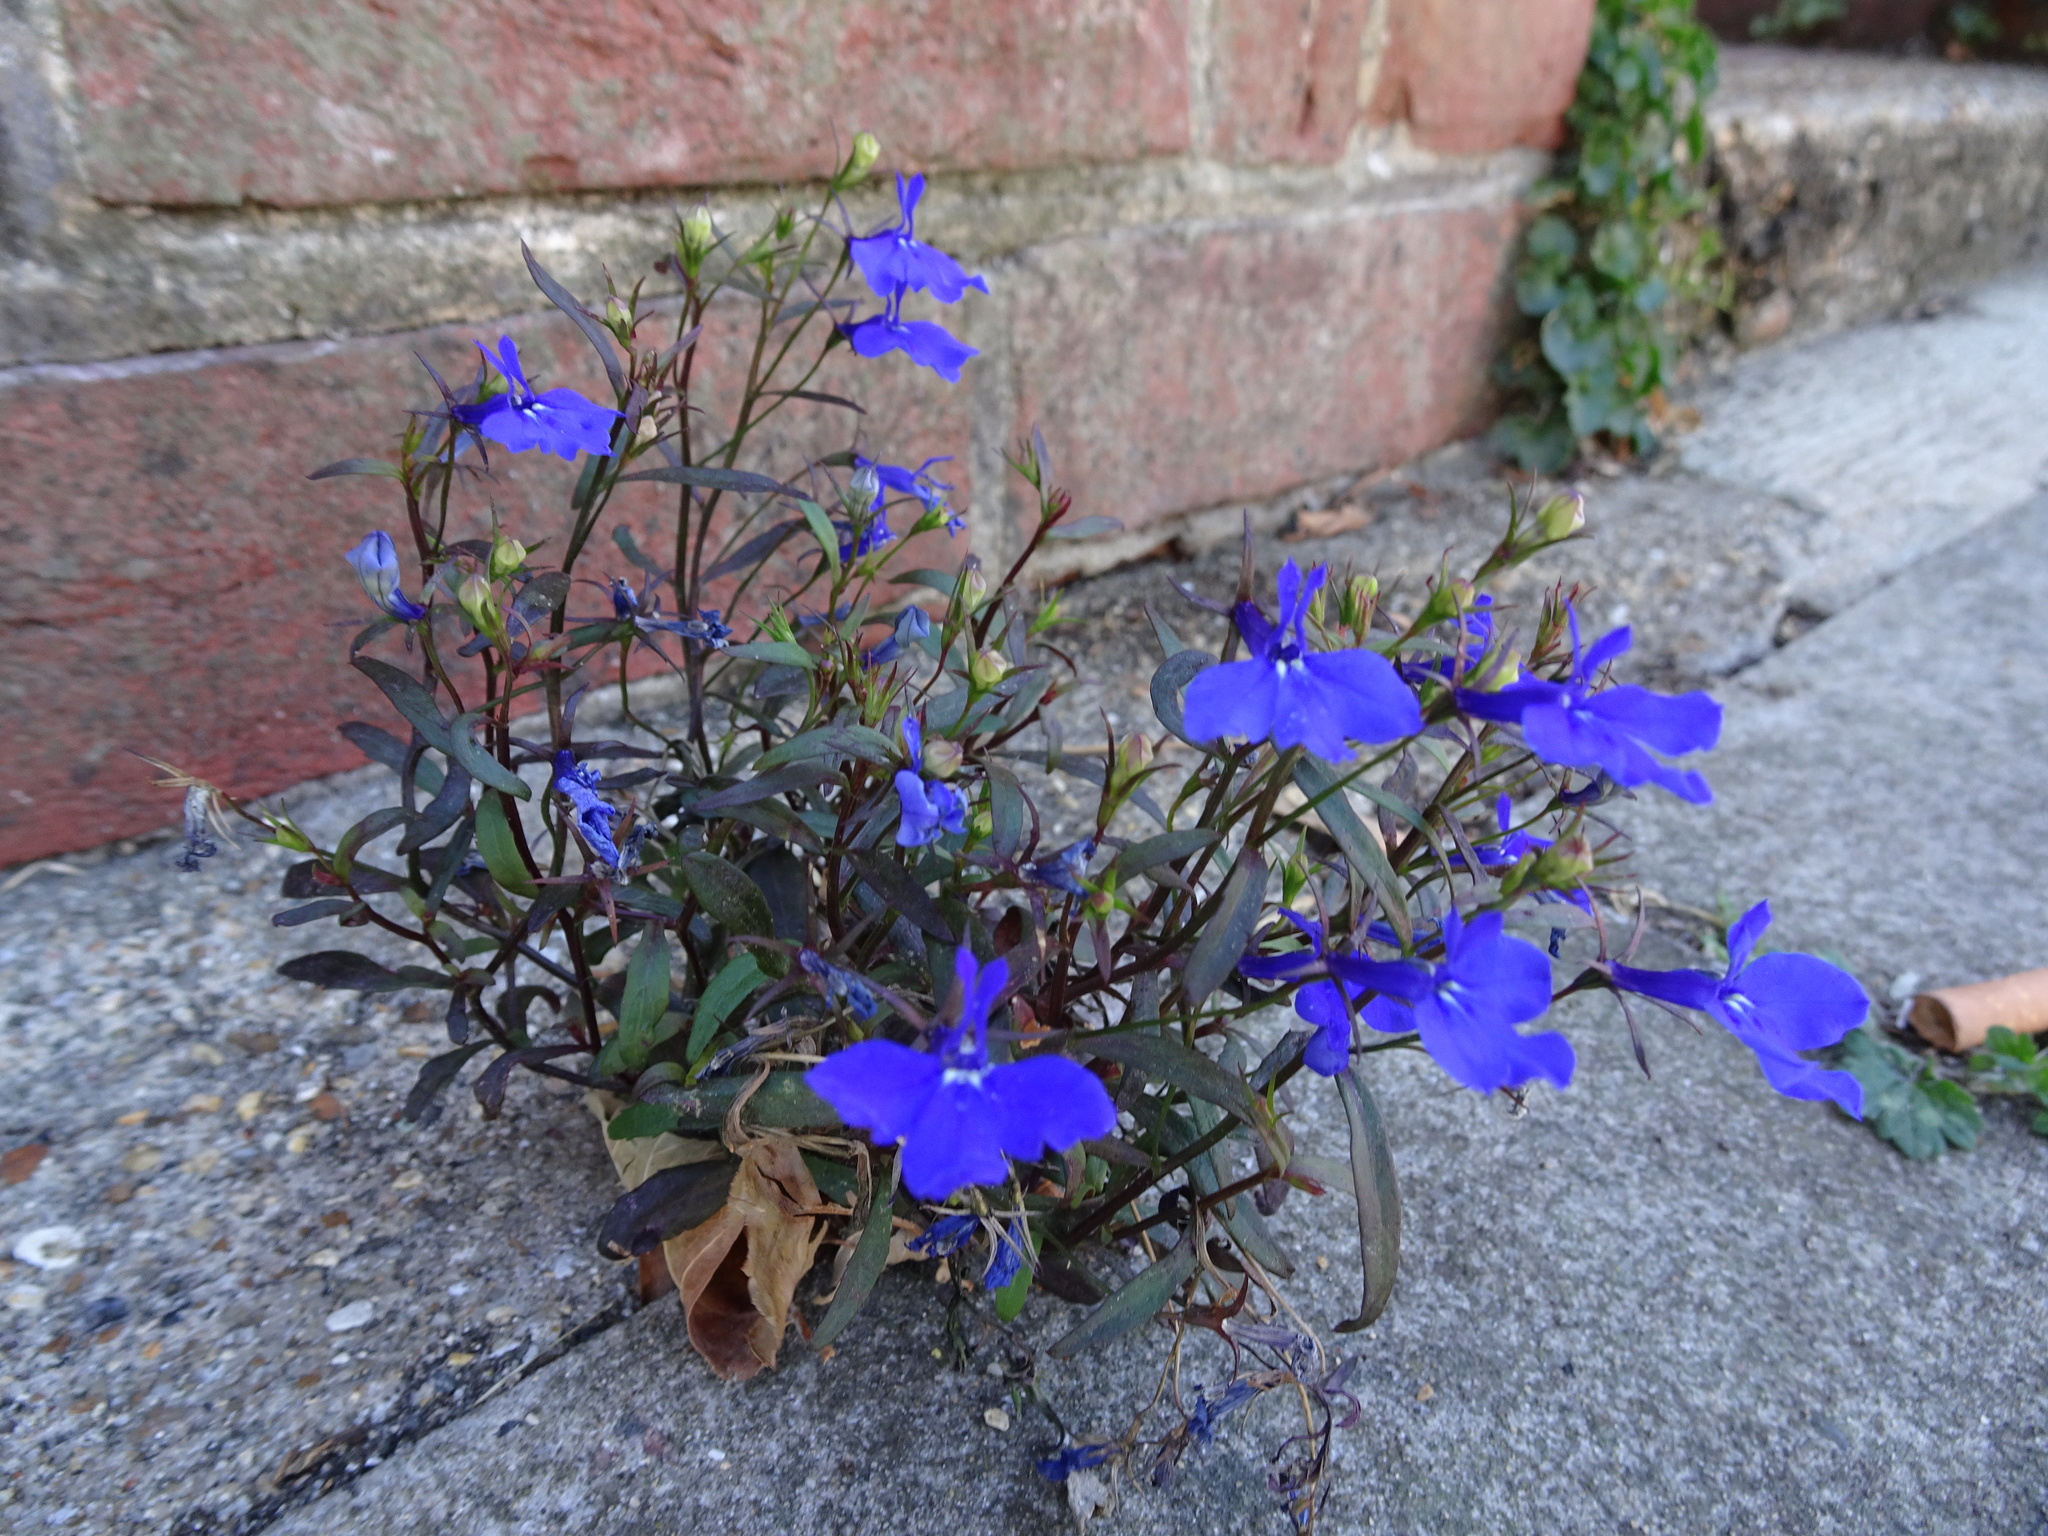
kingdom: Plantae
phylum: Tracheophyta
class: Magnoliopsida
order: Asterales
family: Campanulaceae
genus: Lobelia
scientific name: Lobelia erinus
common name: Edging lobelia
